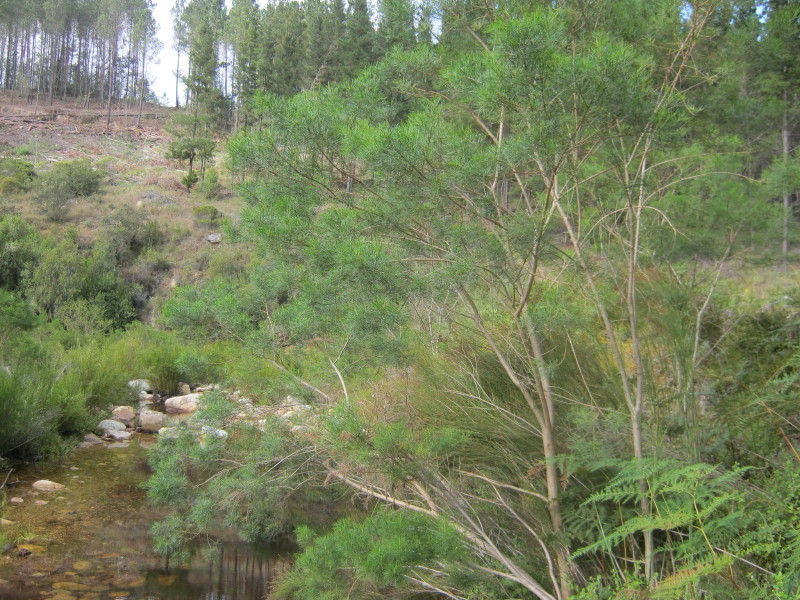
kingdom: Plantae
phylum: Tracheophyta
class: Magnoliopsida
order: Fabales
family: Fabaceae
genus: Psoralea
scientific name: Psoralea affinis
